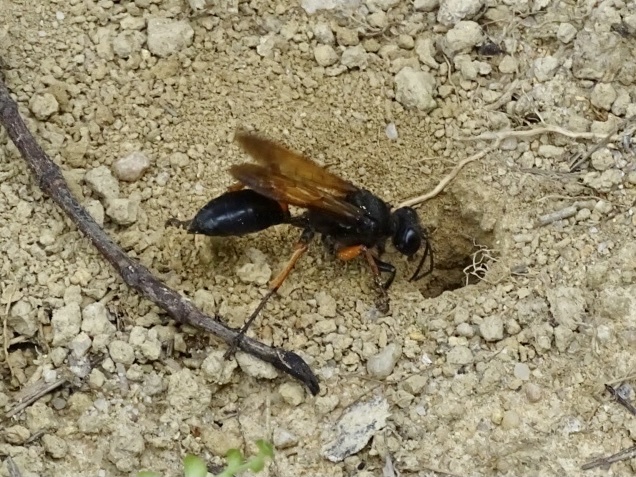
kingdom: Animalia
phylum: Arthropoda
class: Insecta
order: Hymenoptera
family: Sphecidae
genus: Sphex
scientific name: Sphex subtruncatus
